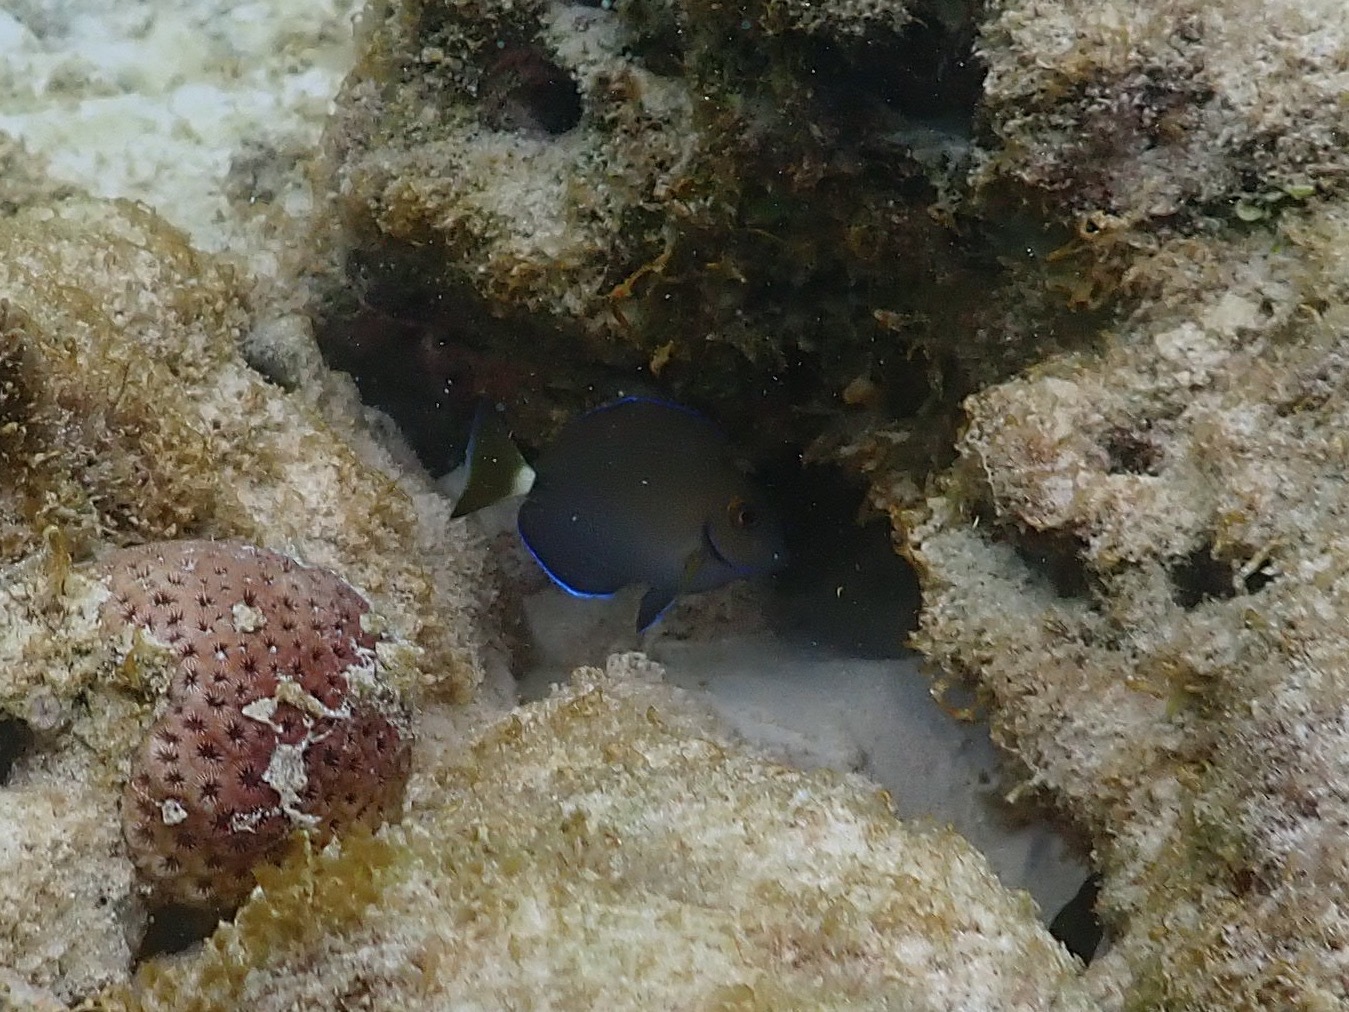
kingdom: Animalia
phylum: Chordata
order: Perciformes
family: Acanthuridae
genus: Acanthurus
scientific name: Acanthurus bahianus
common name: Ocean surgeon
